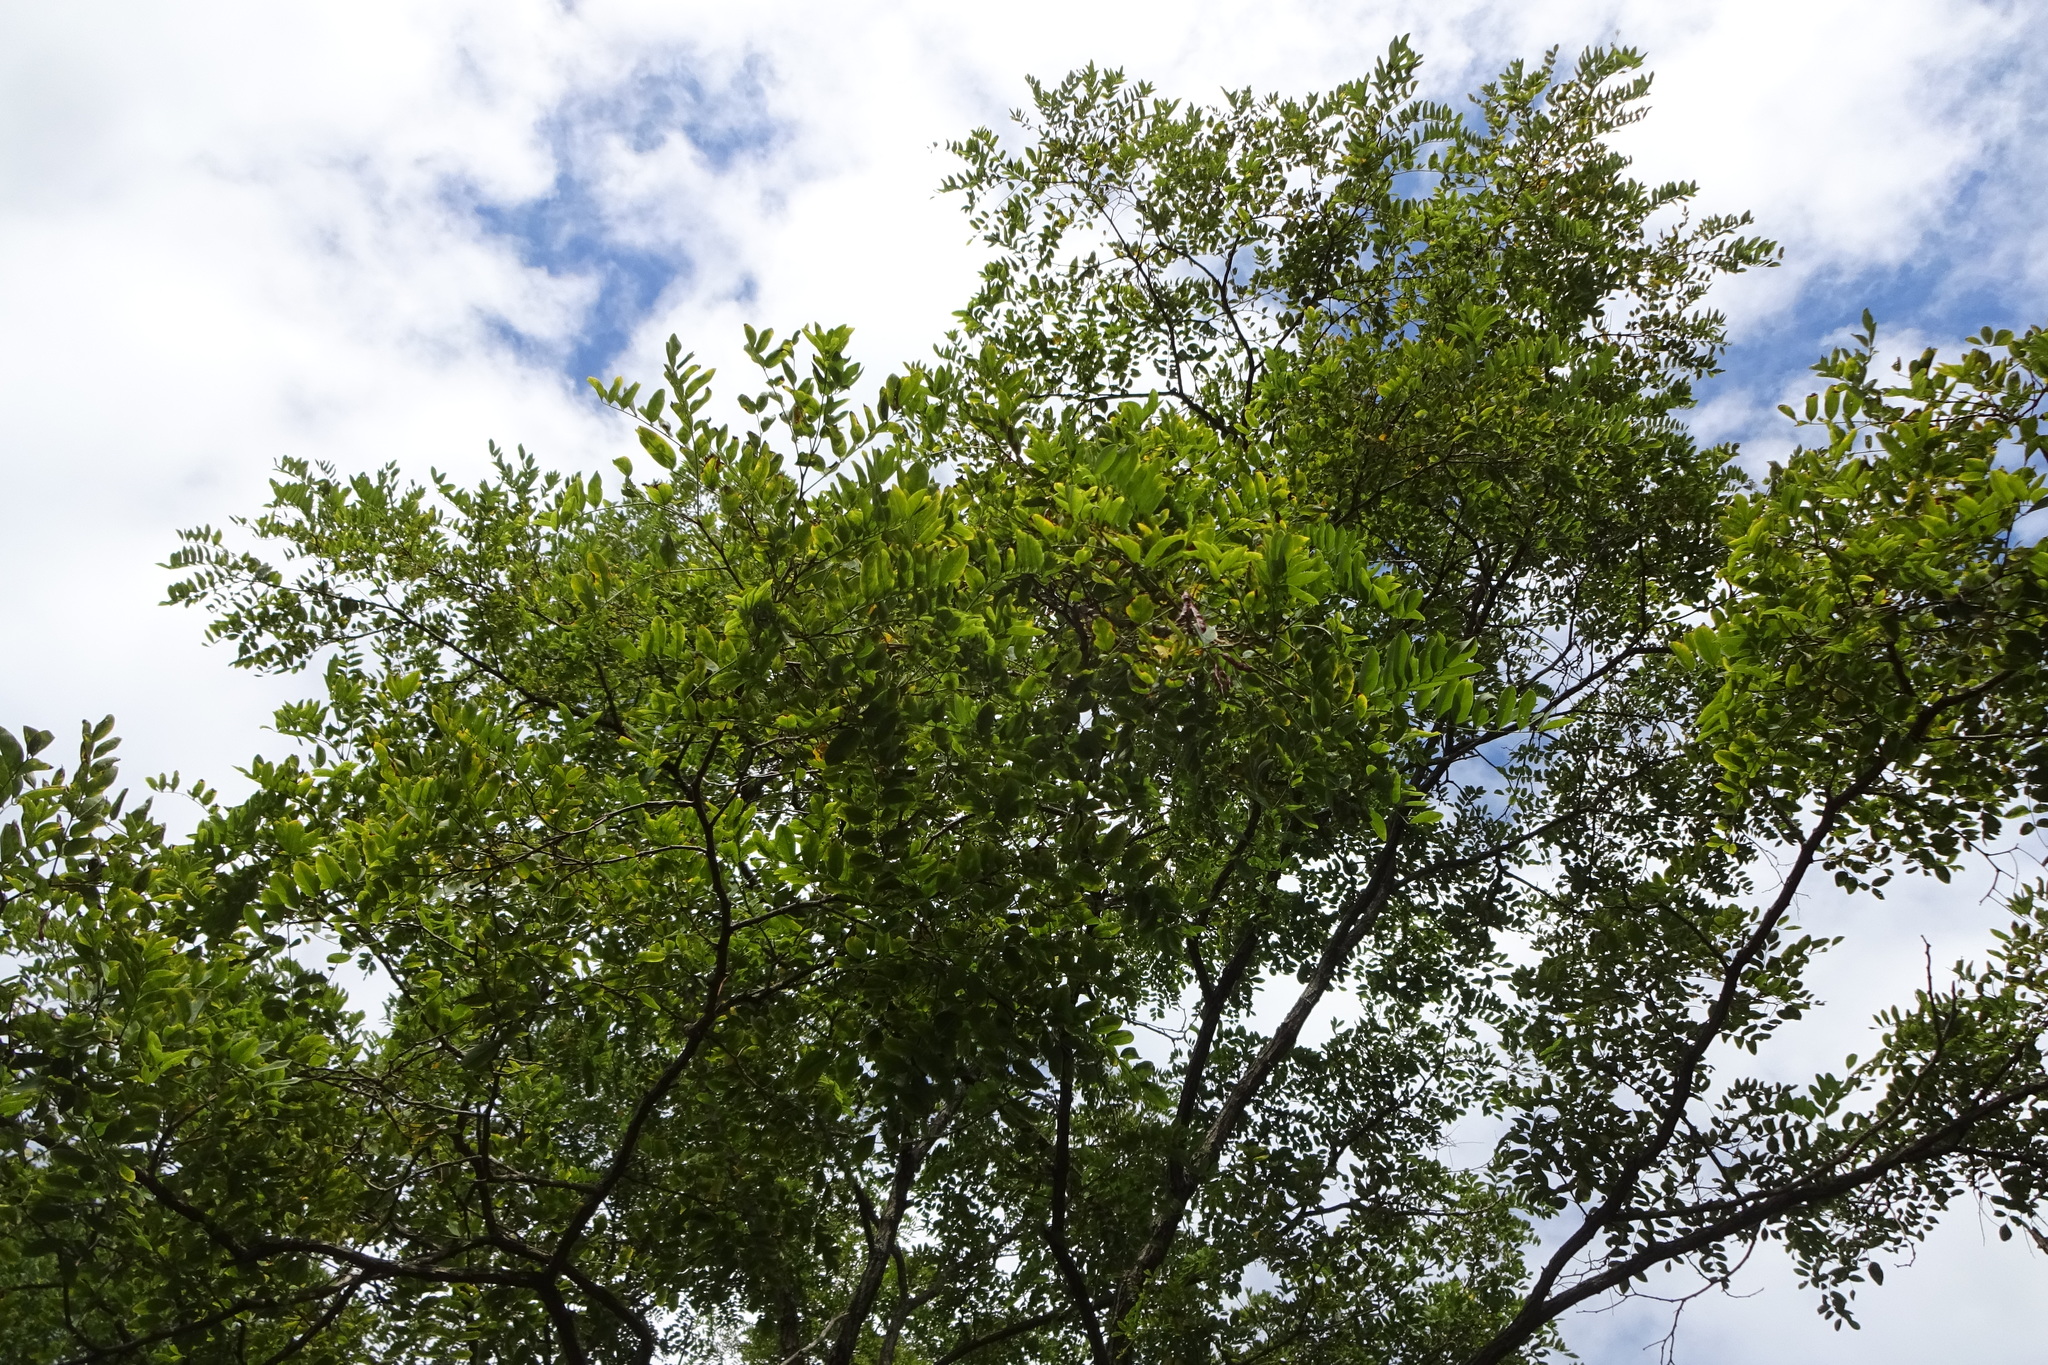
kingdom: Plantae
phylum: Tracheophyta
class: Magnoliopsida
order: Fabales
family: Fabaceae
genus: Robinia
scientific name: Robinia pseudoacacia
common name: Black locust
